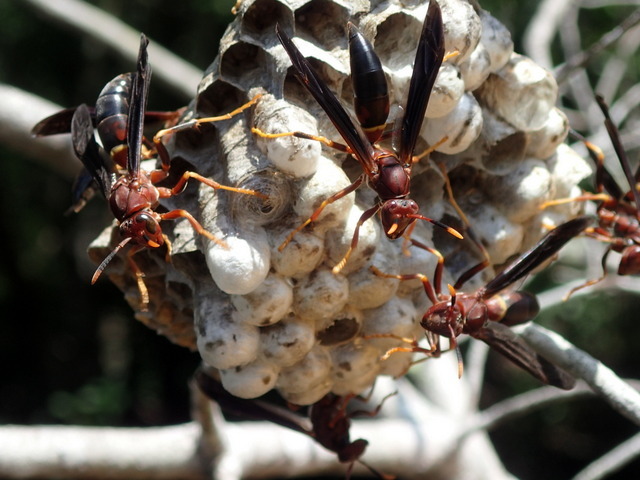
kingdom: Animalia
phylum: Arthropoda
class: Insecta
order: Hymenoptera
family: Eumenidae
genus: Polistes
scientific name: Polistes annularis
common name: Ringed paper wasp
